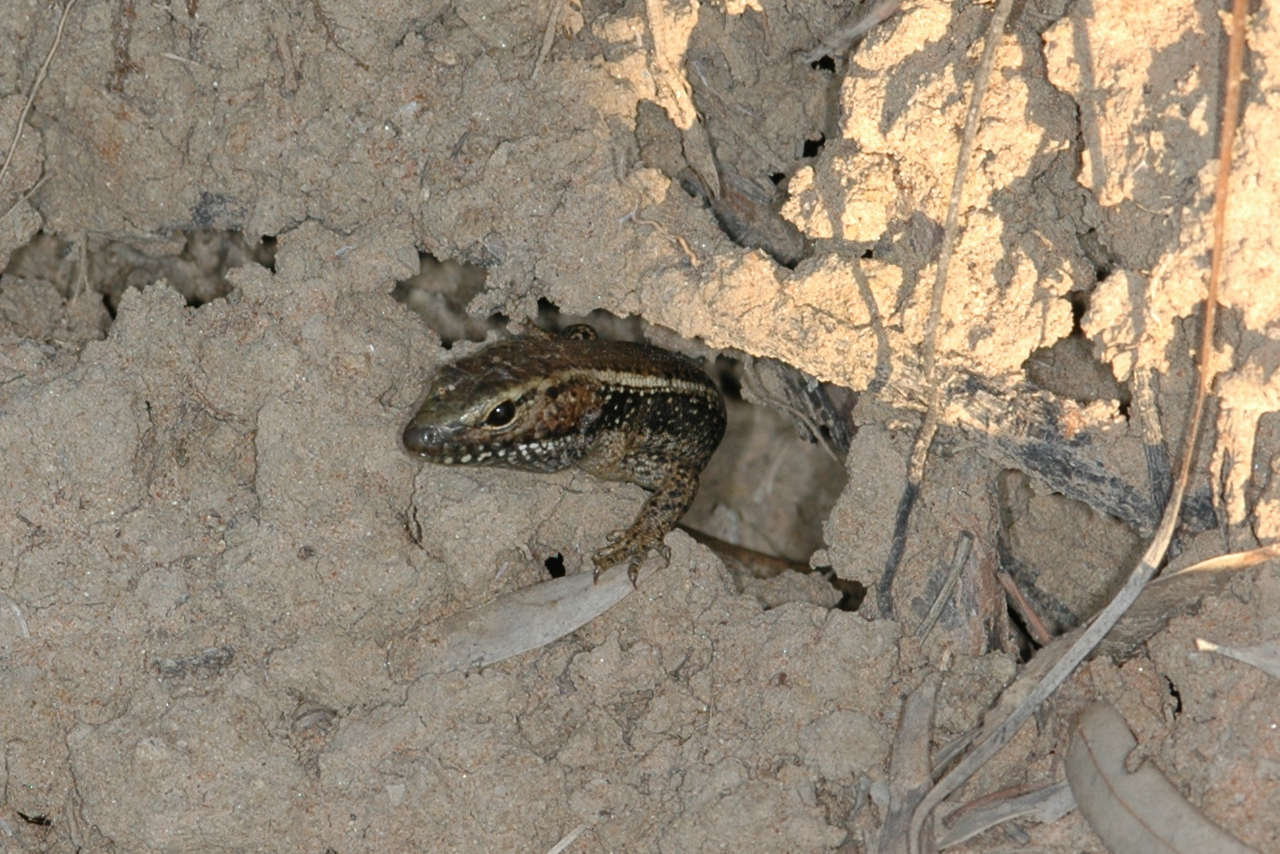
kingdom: Animalia
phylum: Chordata
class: Squamata
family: Scincidae
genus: Eulamprus
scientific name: Eulamprus quoyii
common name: Eastern water skink
